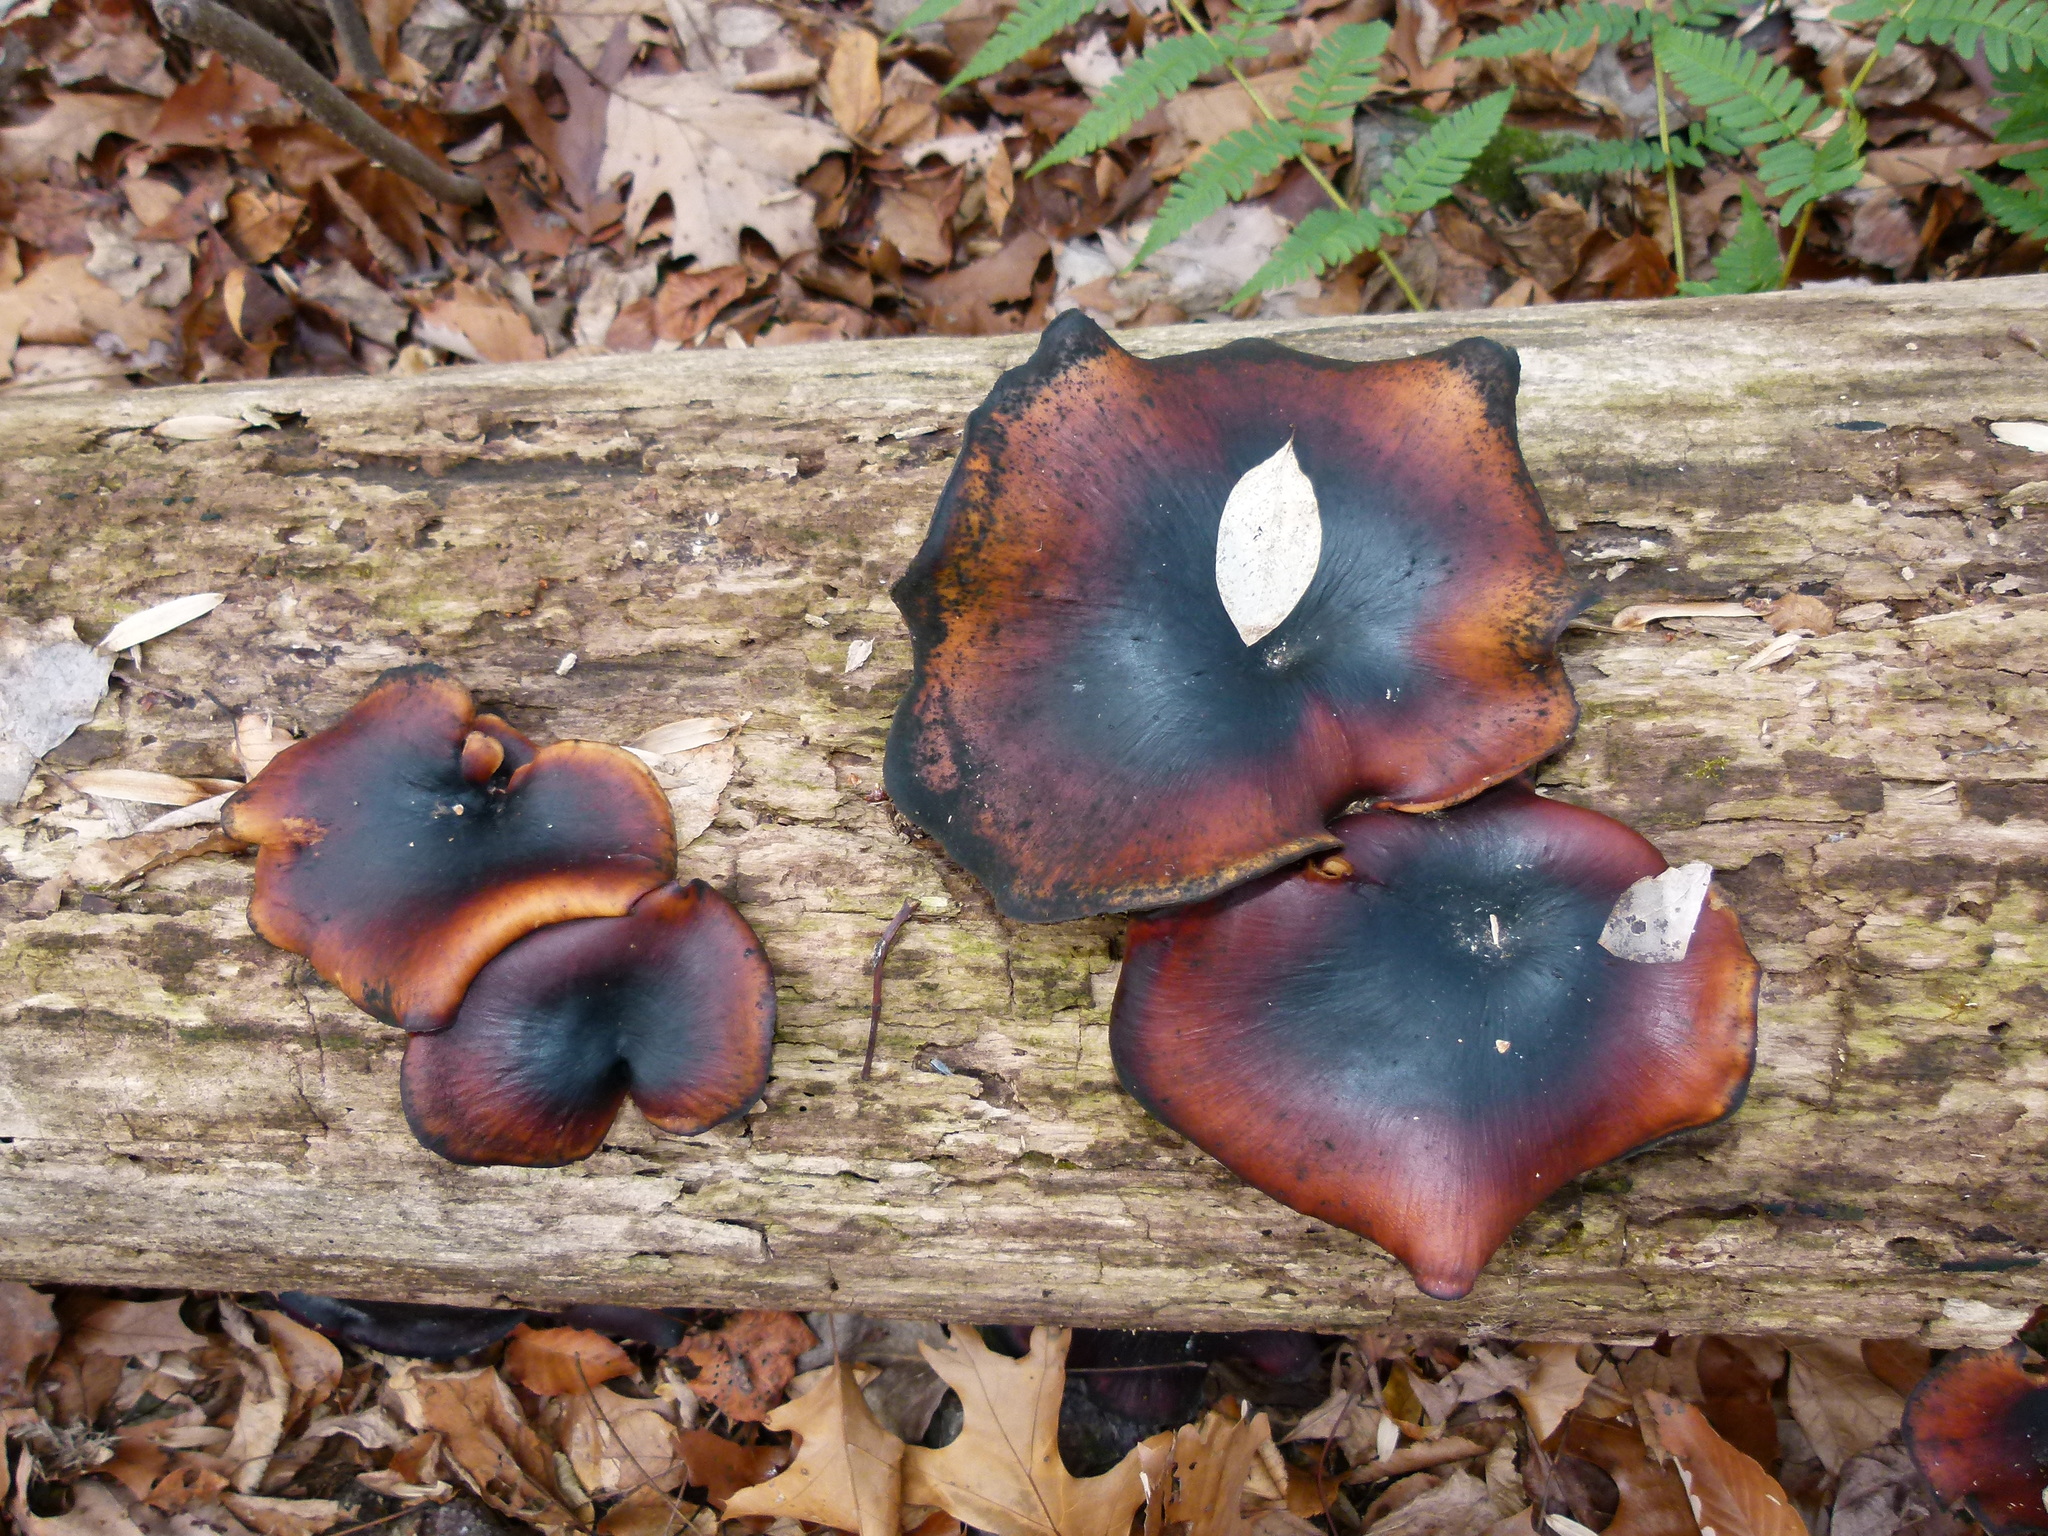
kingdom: Fungi
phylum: Basidiomycota
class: Agaricomycetes
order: Polyporales
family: Polyporaceae
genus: Picipes
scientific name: Picipes badius
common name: Bay polypore
